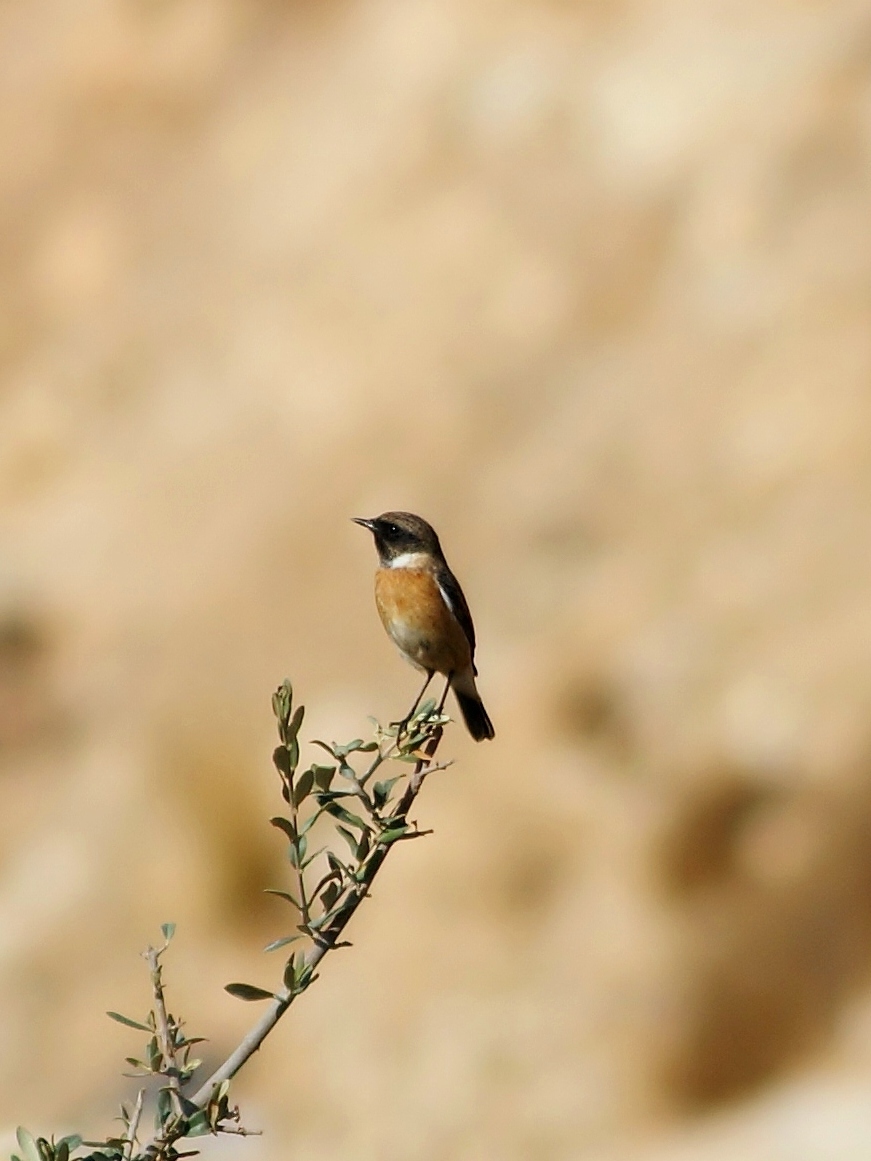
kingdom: Animalia
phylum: Chordata
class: Aves
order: Passeriformes
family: Muscicapidae
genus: Saxicola
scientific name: Saxicola rubicola
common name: European stonechat
